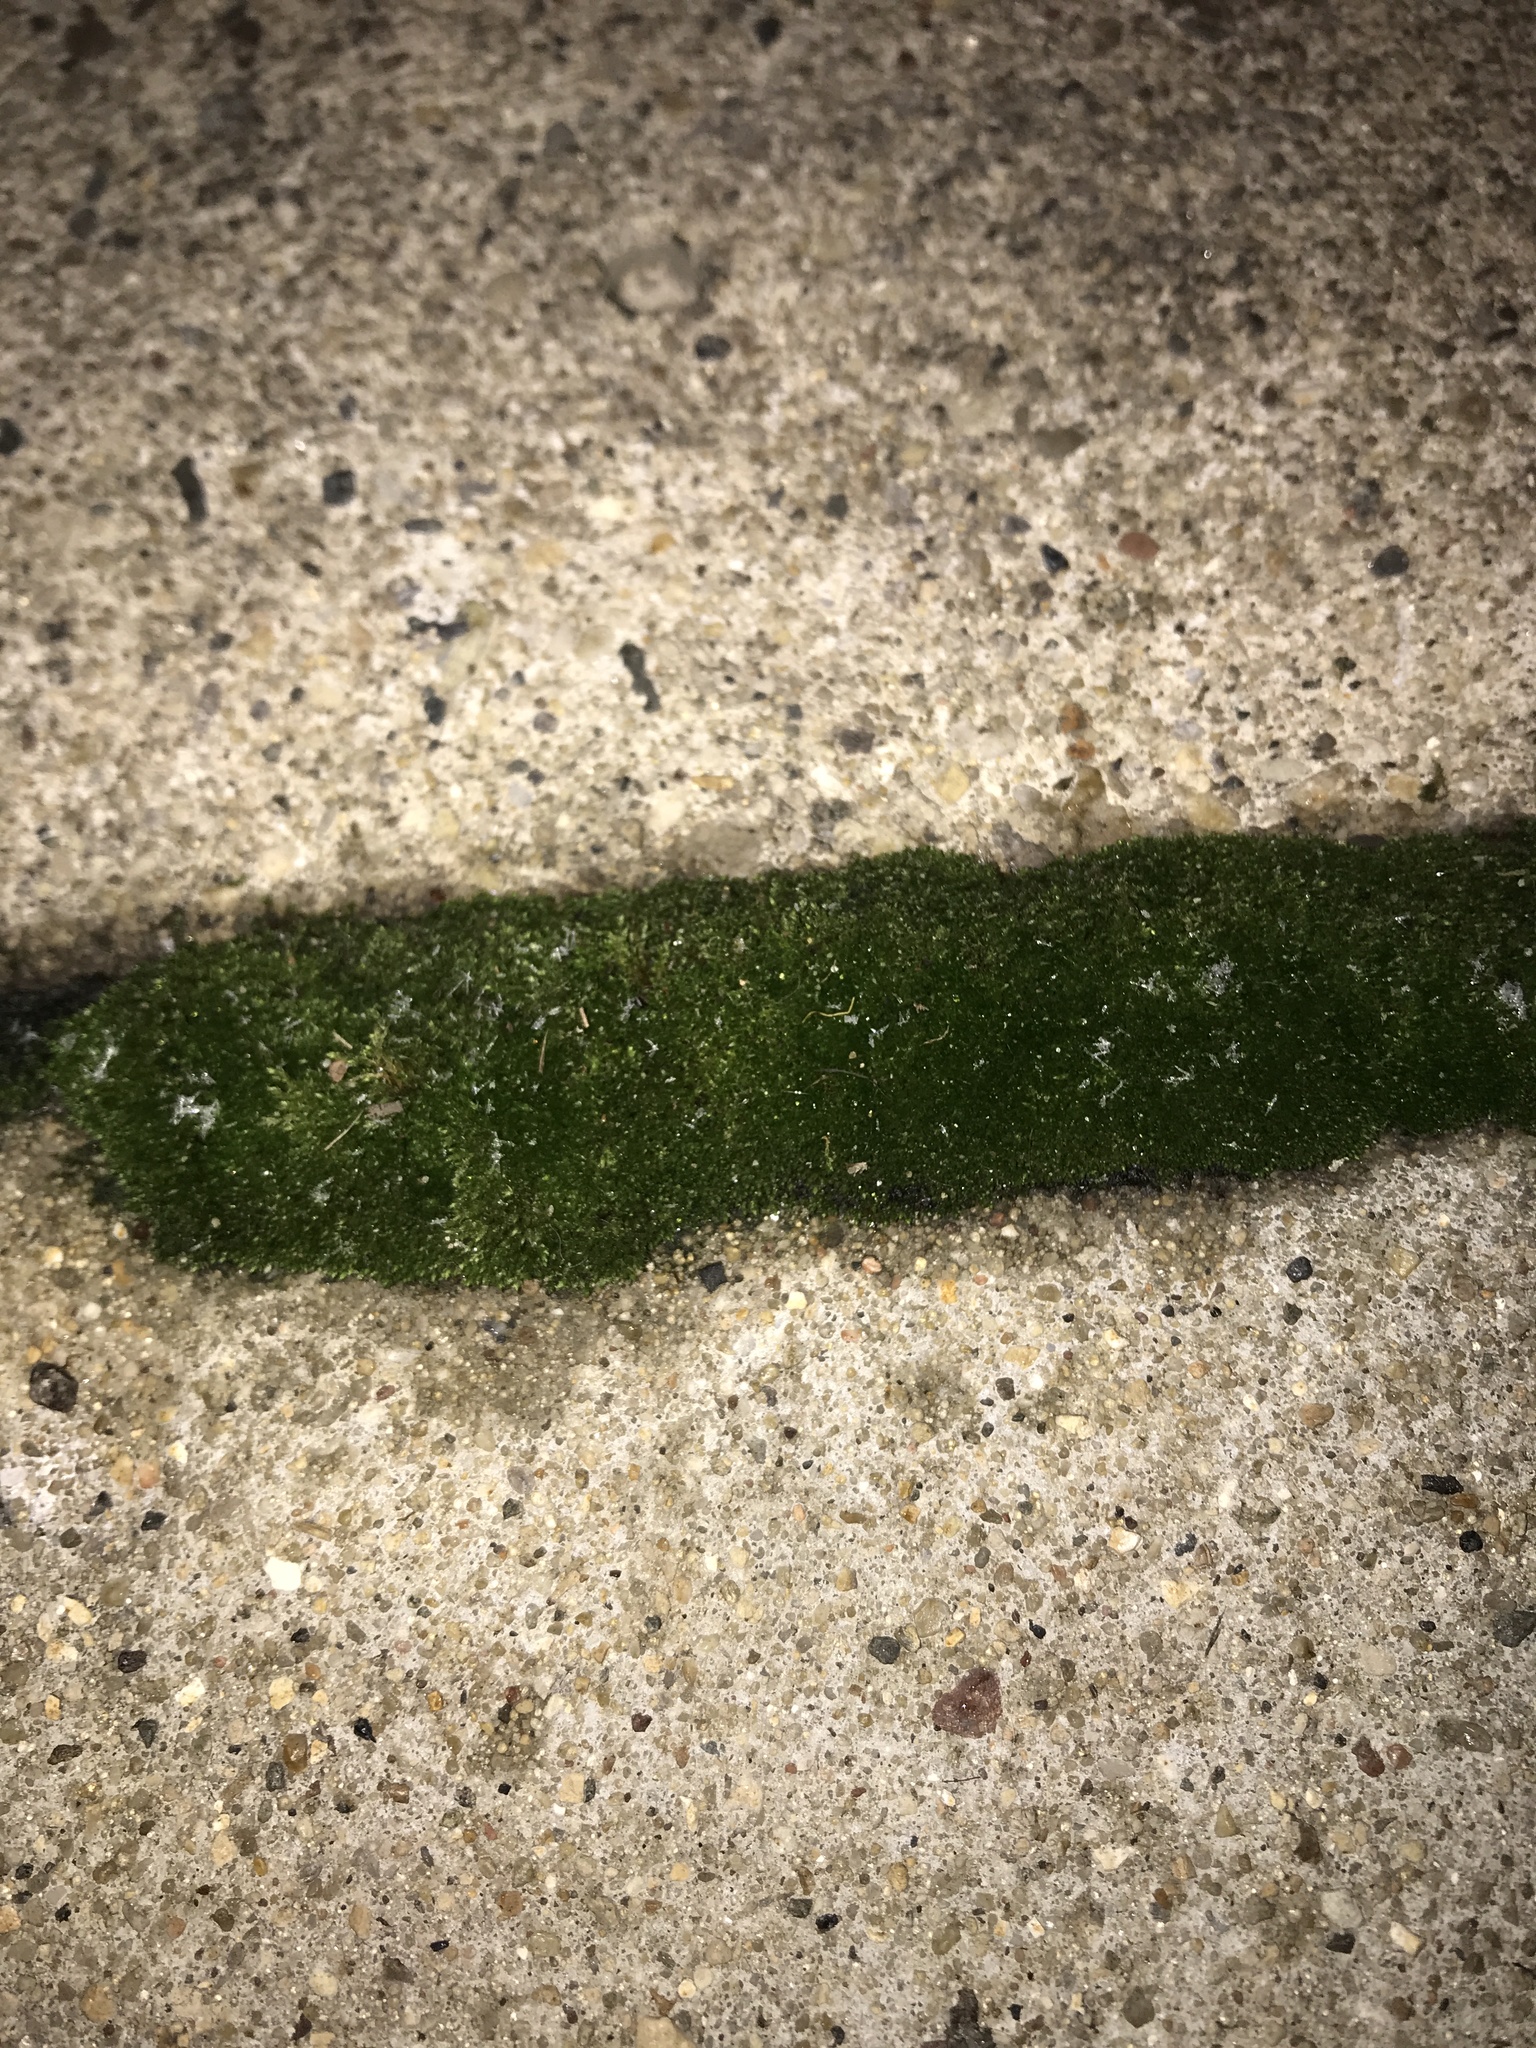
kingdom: Plantae
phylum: Bryophyta
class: Bryopsida
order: Bryales
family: Bryaceae
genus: Bryum
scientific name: Bryum argenteum
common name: Silver-moss
